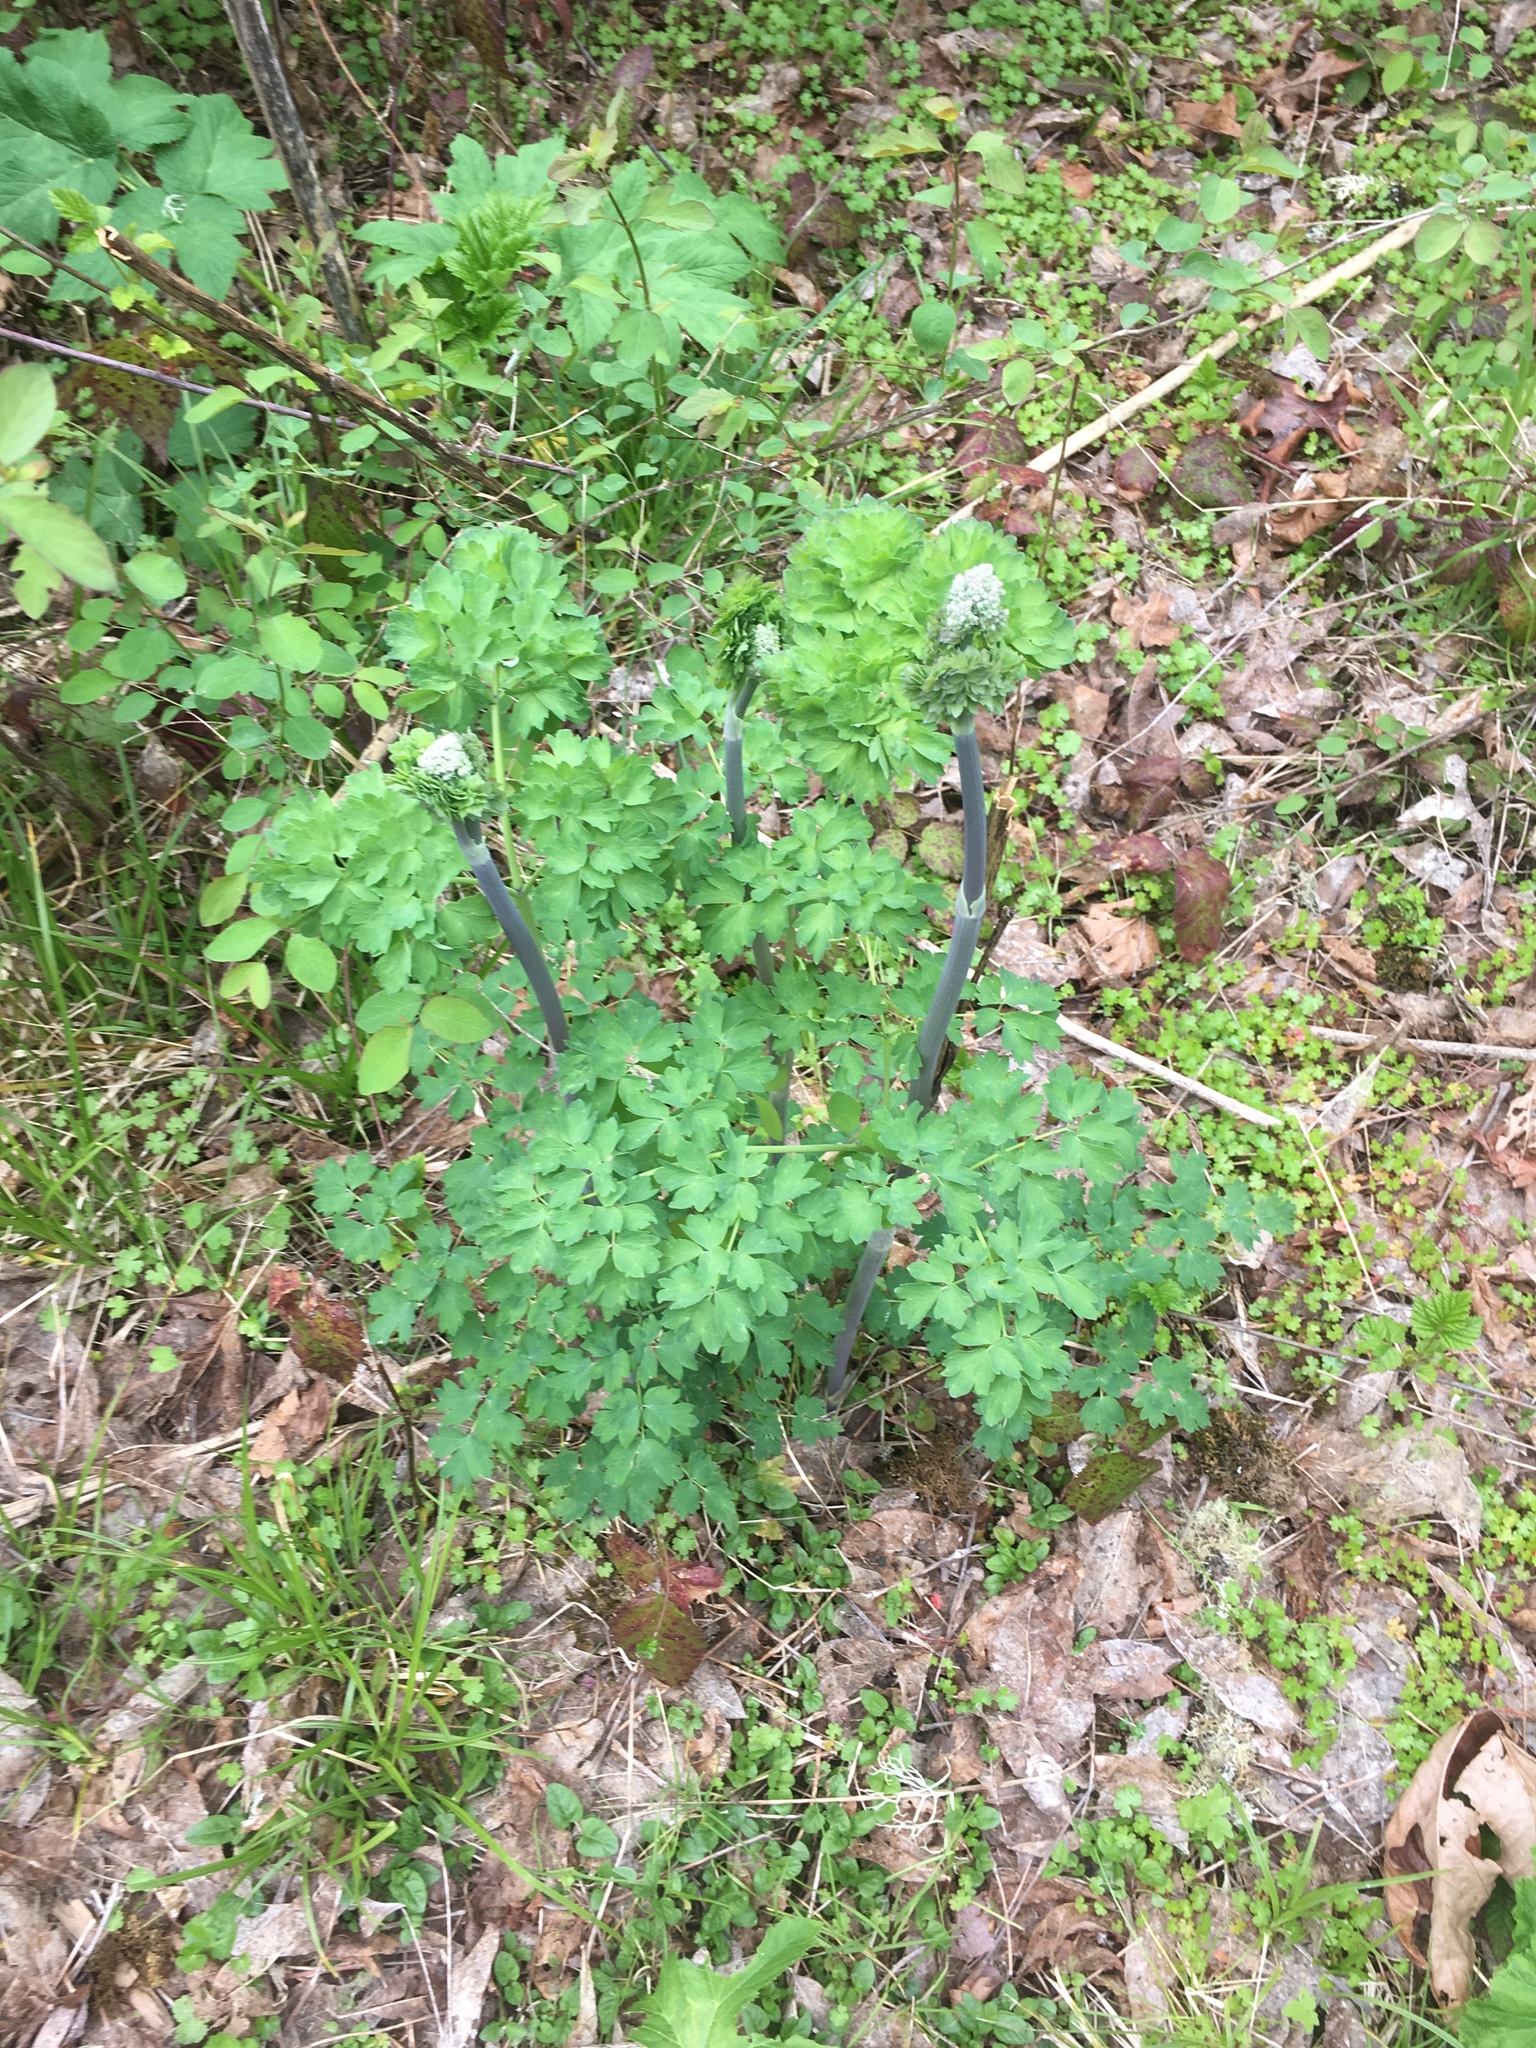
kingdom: Plantae
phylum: Tracheophyta
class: Magnoliopsida
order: Ranunculales
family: Ranunculaceae
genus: Thalictrum
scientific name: Thalictrum fendleri
